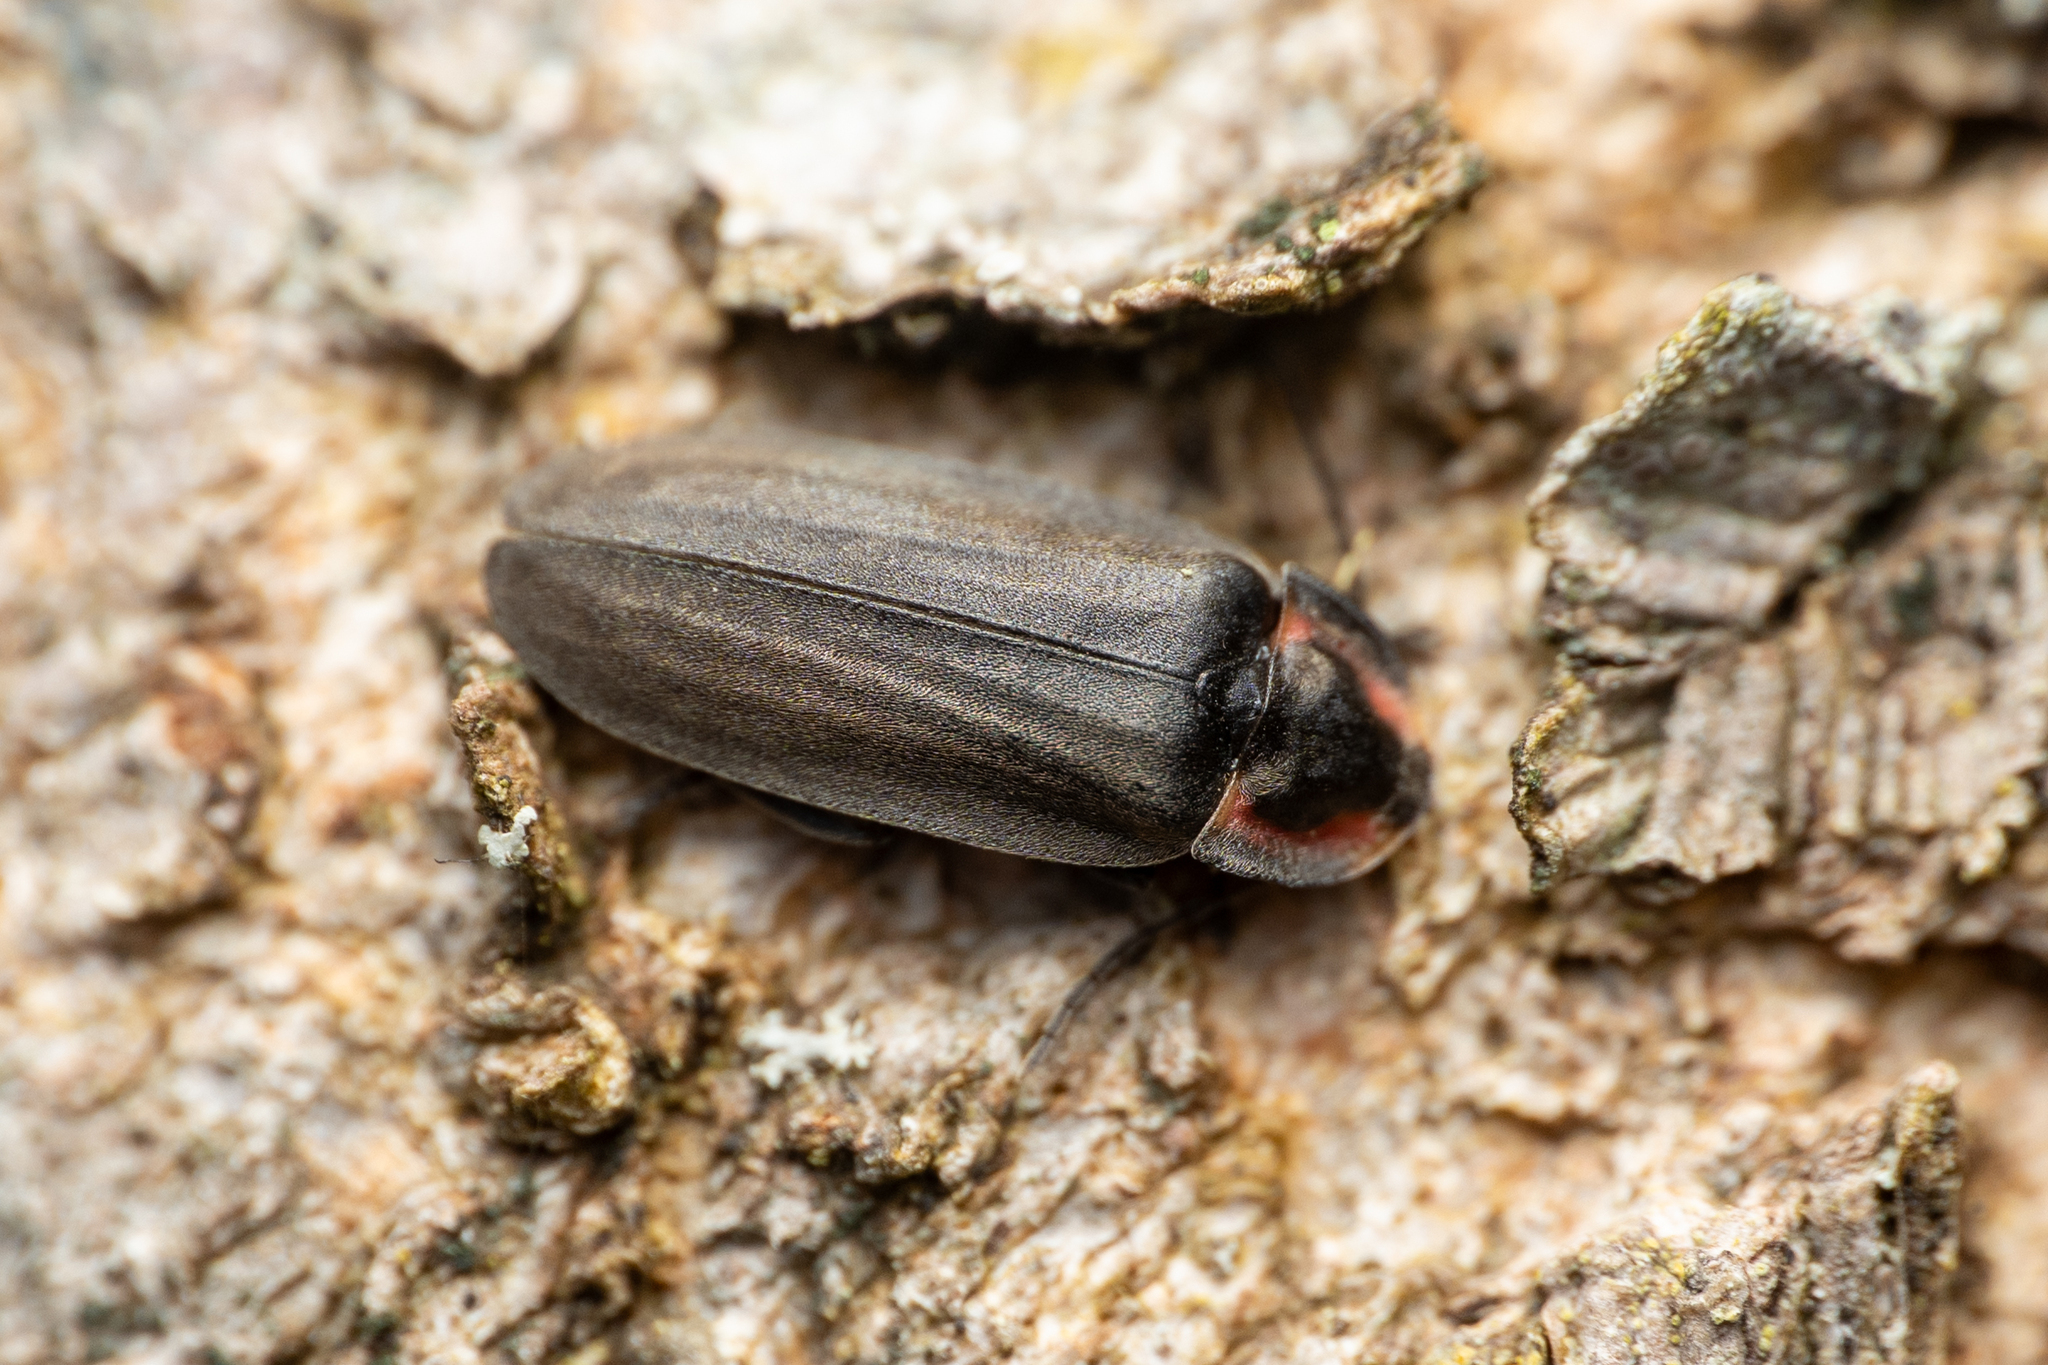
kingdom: Animalia
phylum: Arthropoda
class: Insecta
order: Coleoptera
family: Lampyridae
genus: Photinus
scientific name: Photinus corrusca
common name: Winter firefly
